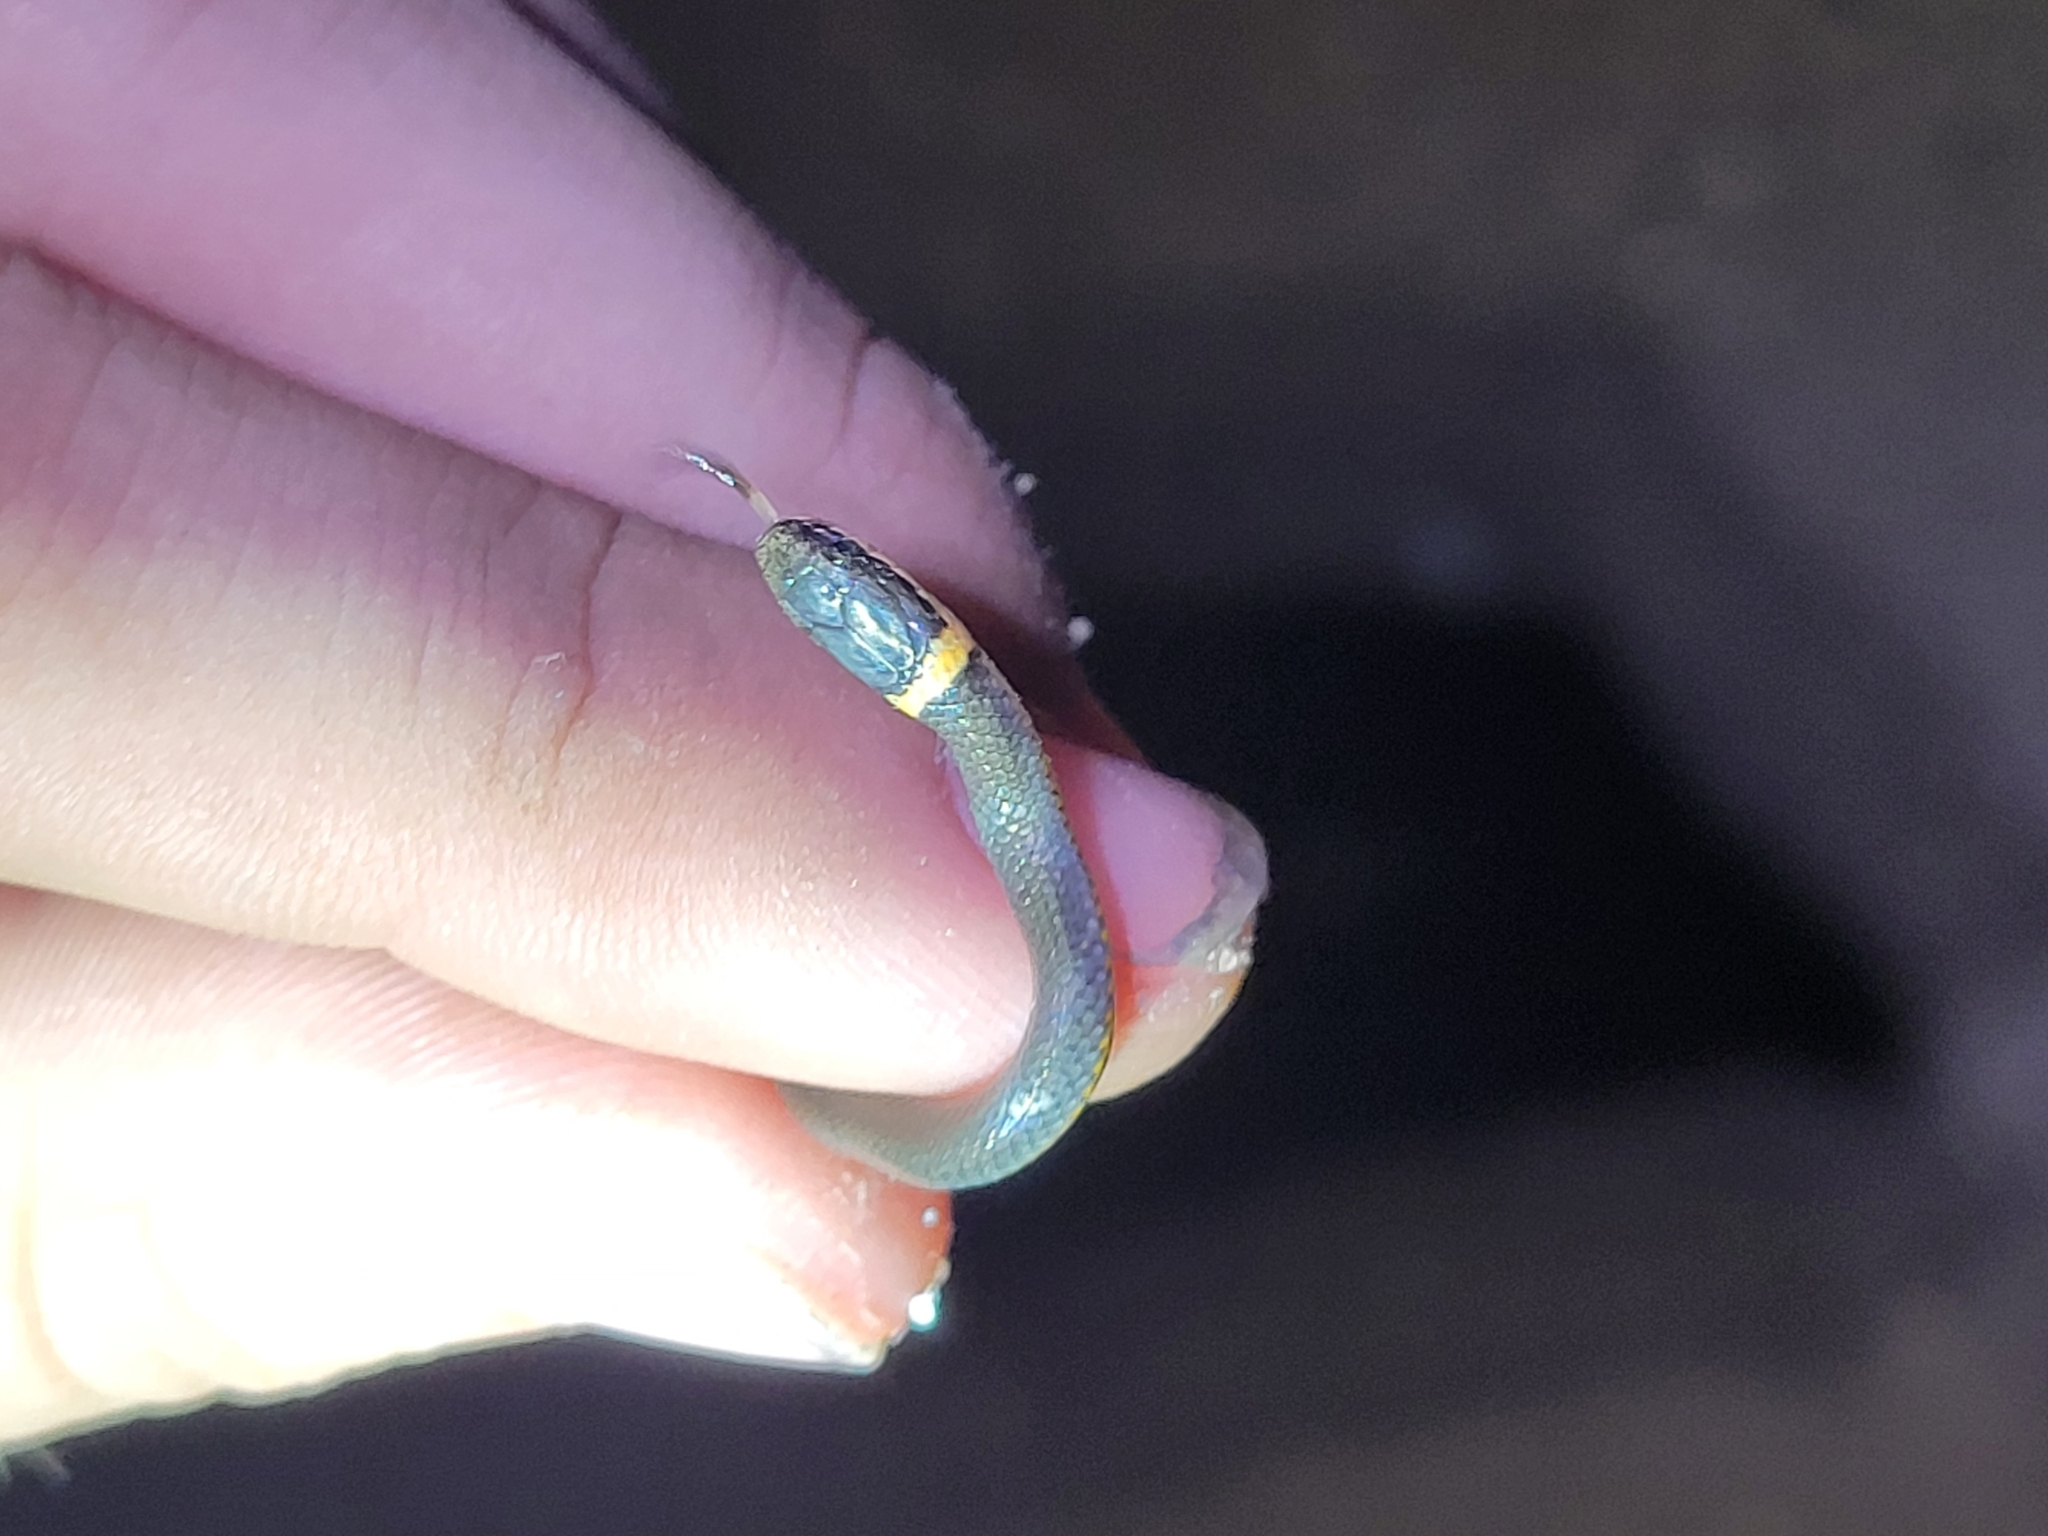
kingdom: Animalia
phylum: Chordata
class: Squamata
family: Colubridae
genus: Diadophis
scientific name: Diadophis punctatus
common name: Ringneck snake
